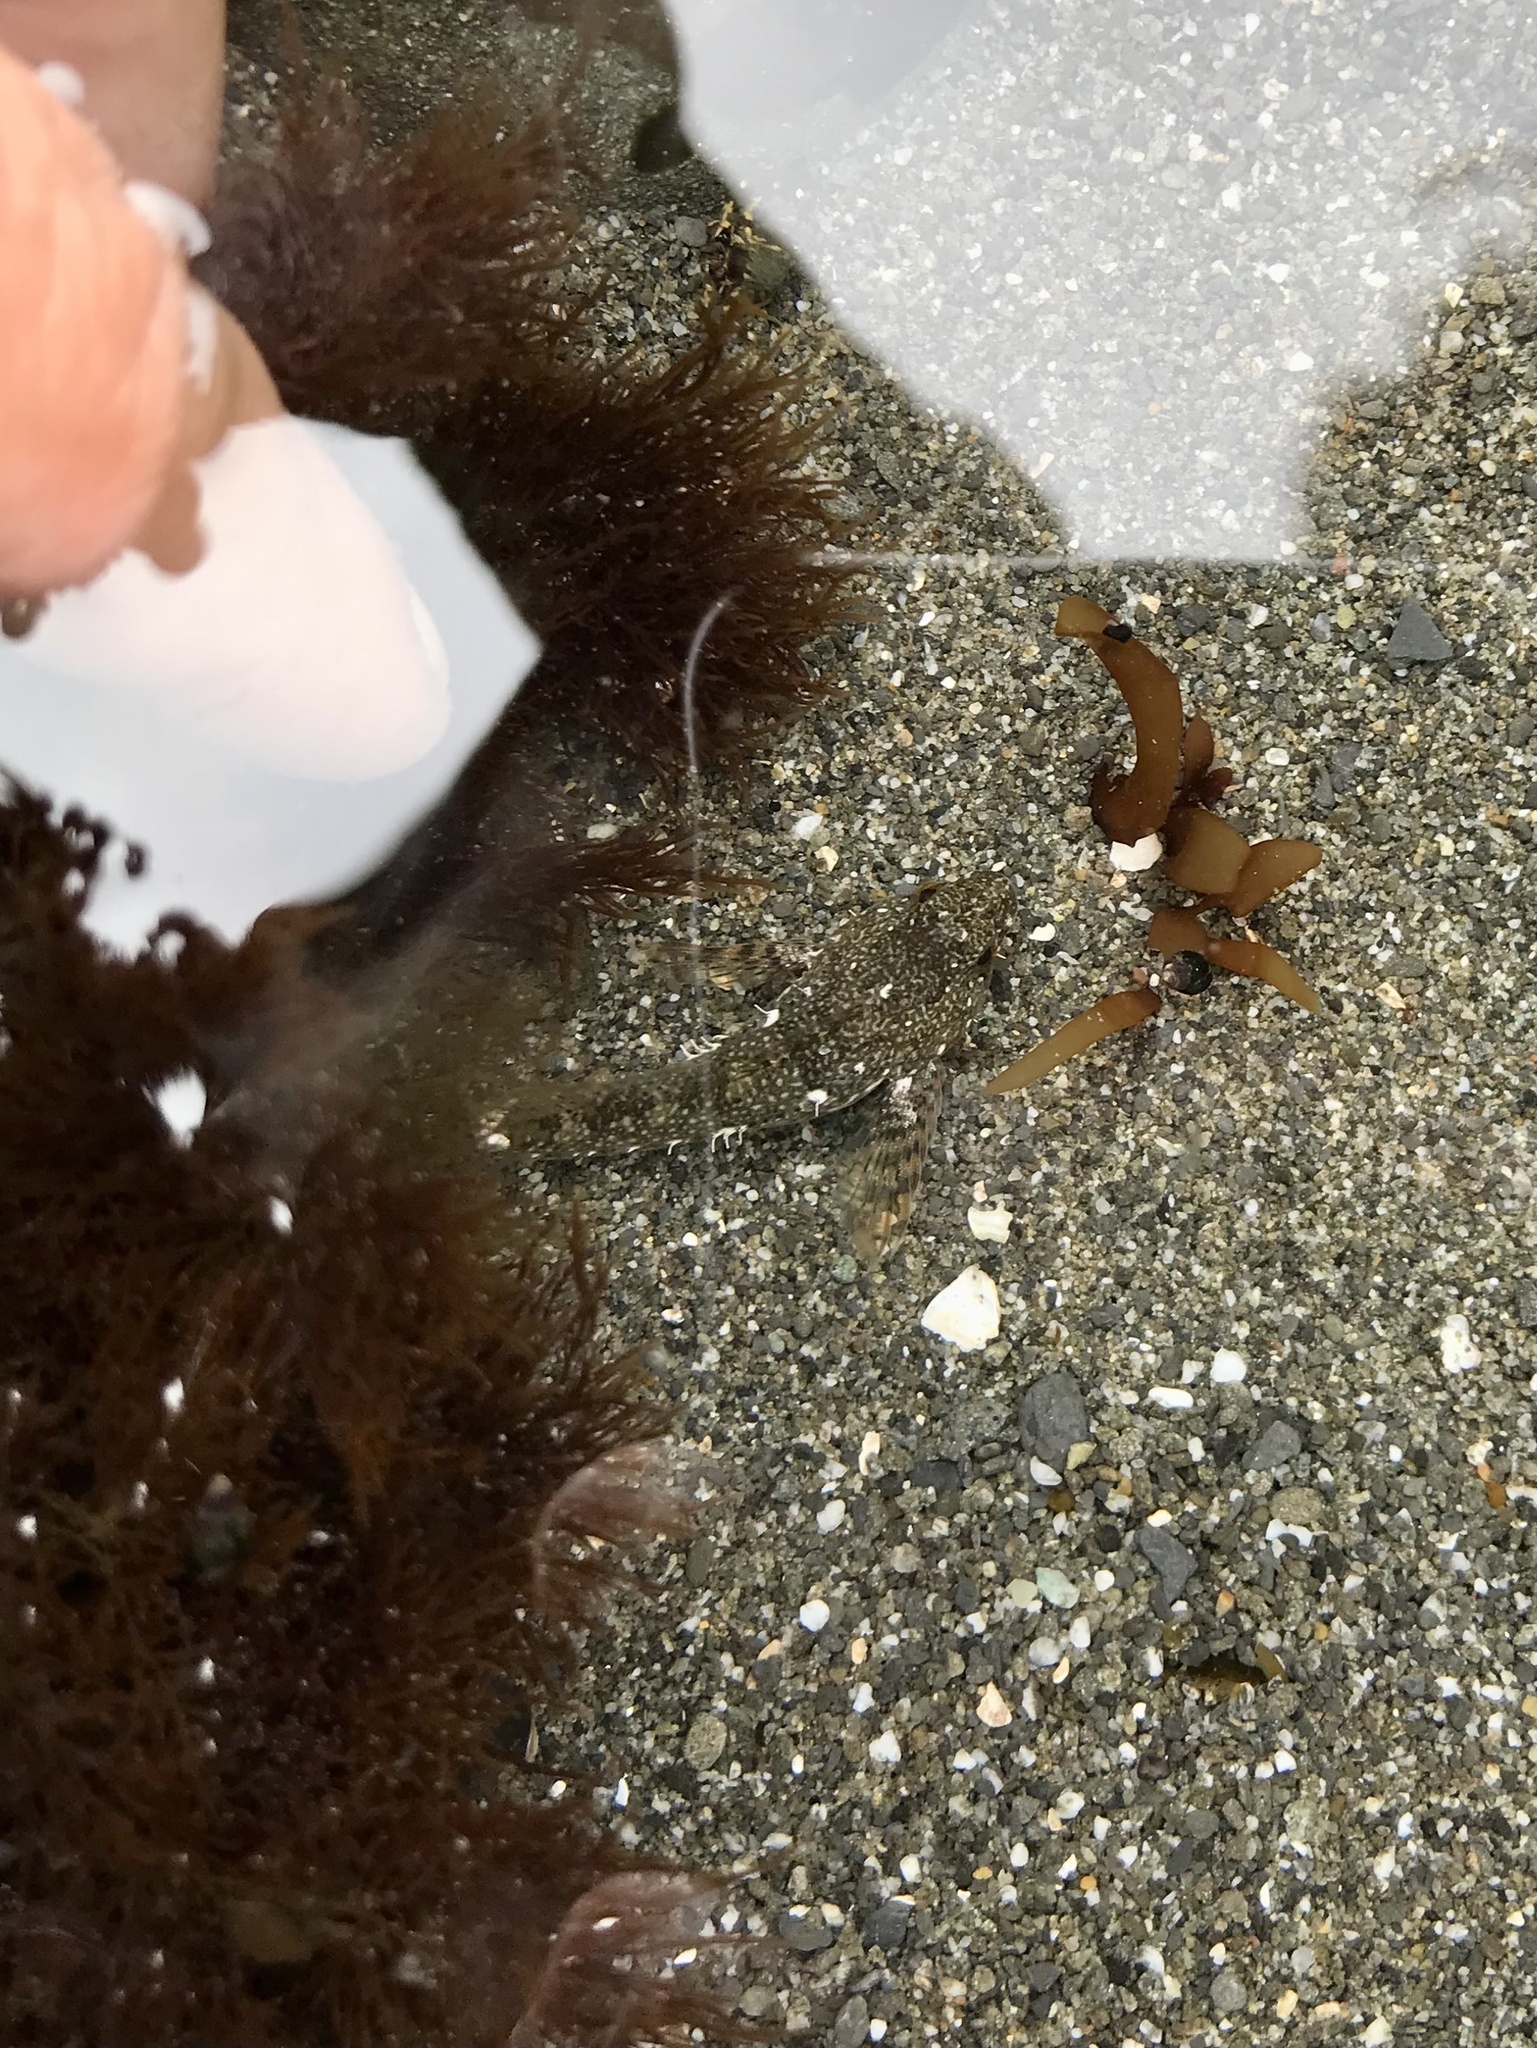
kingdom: Animalia
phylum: Chordata
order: Scorpaeniformes
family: Cottidae
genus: Oligocottus
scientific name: Oligocottus maculosus
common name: Tidepool sculpin
